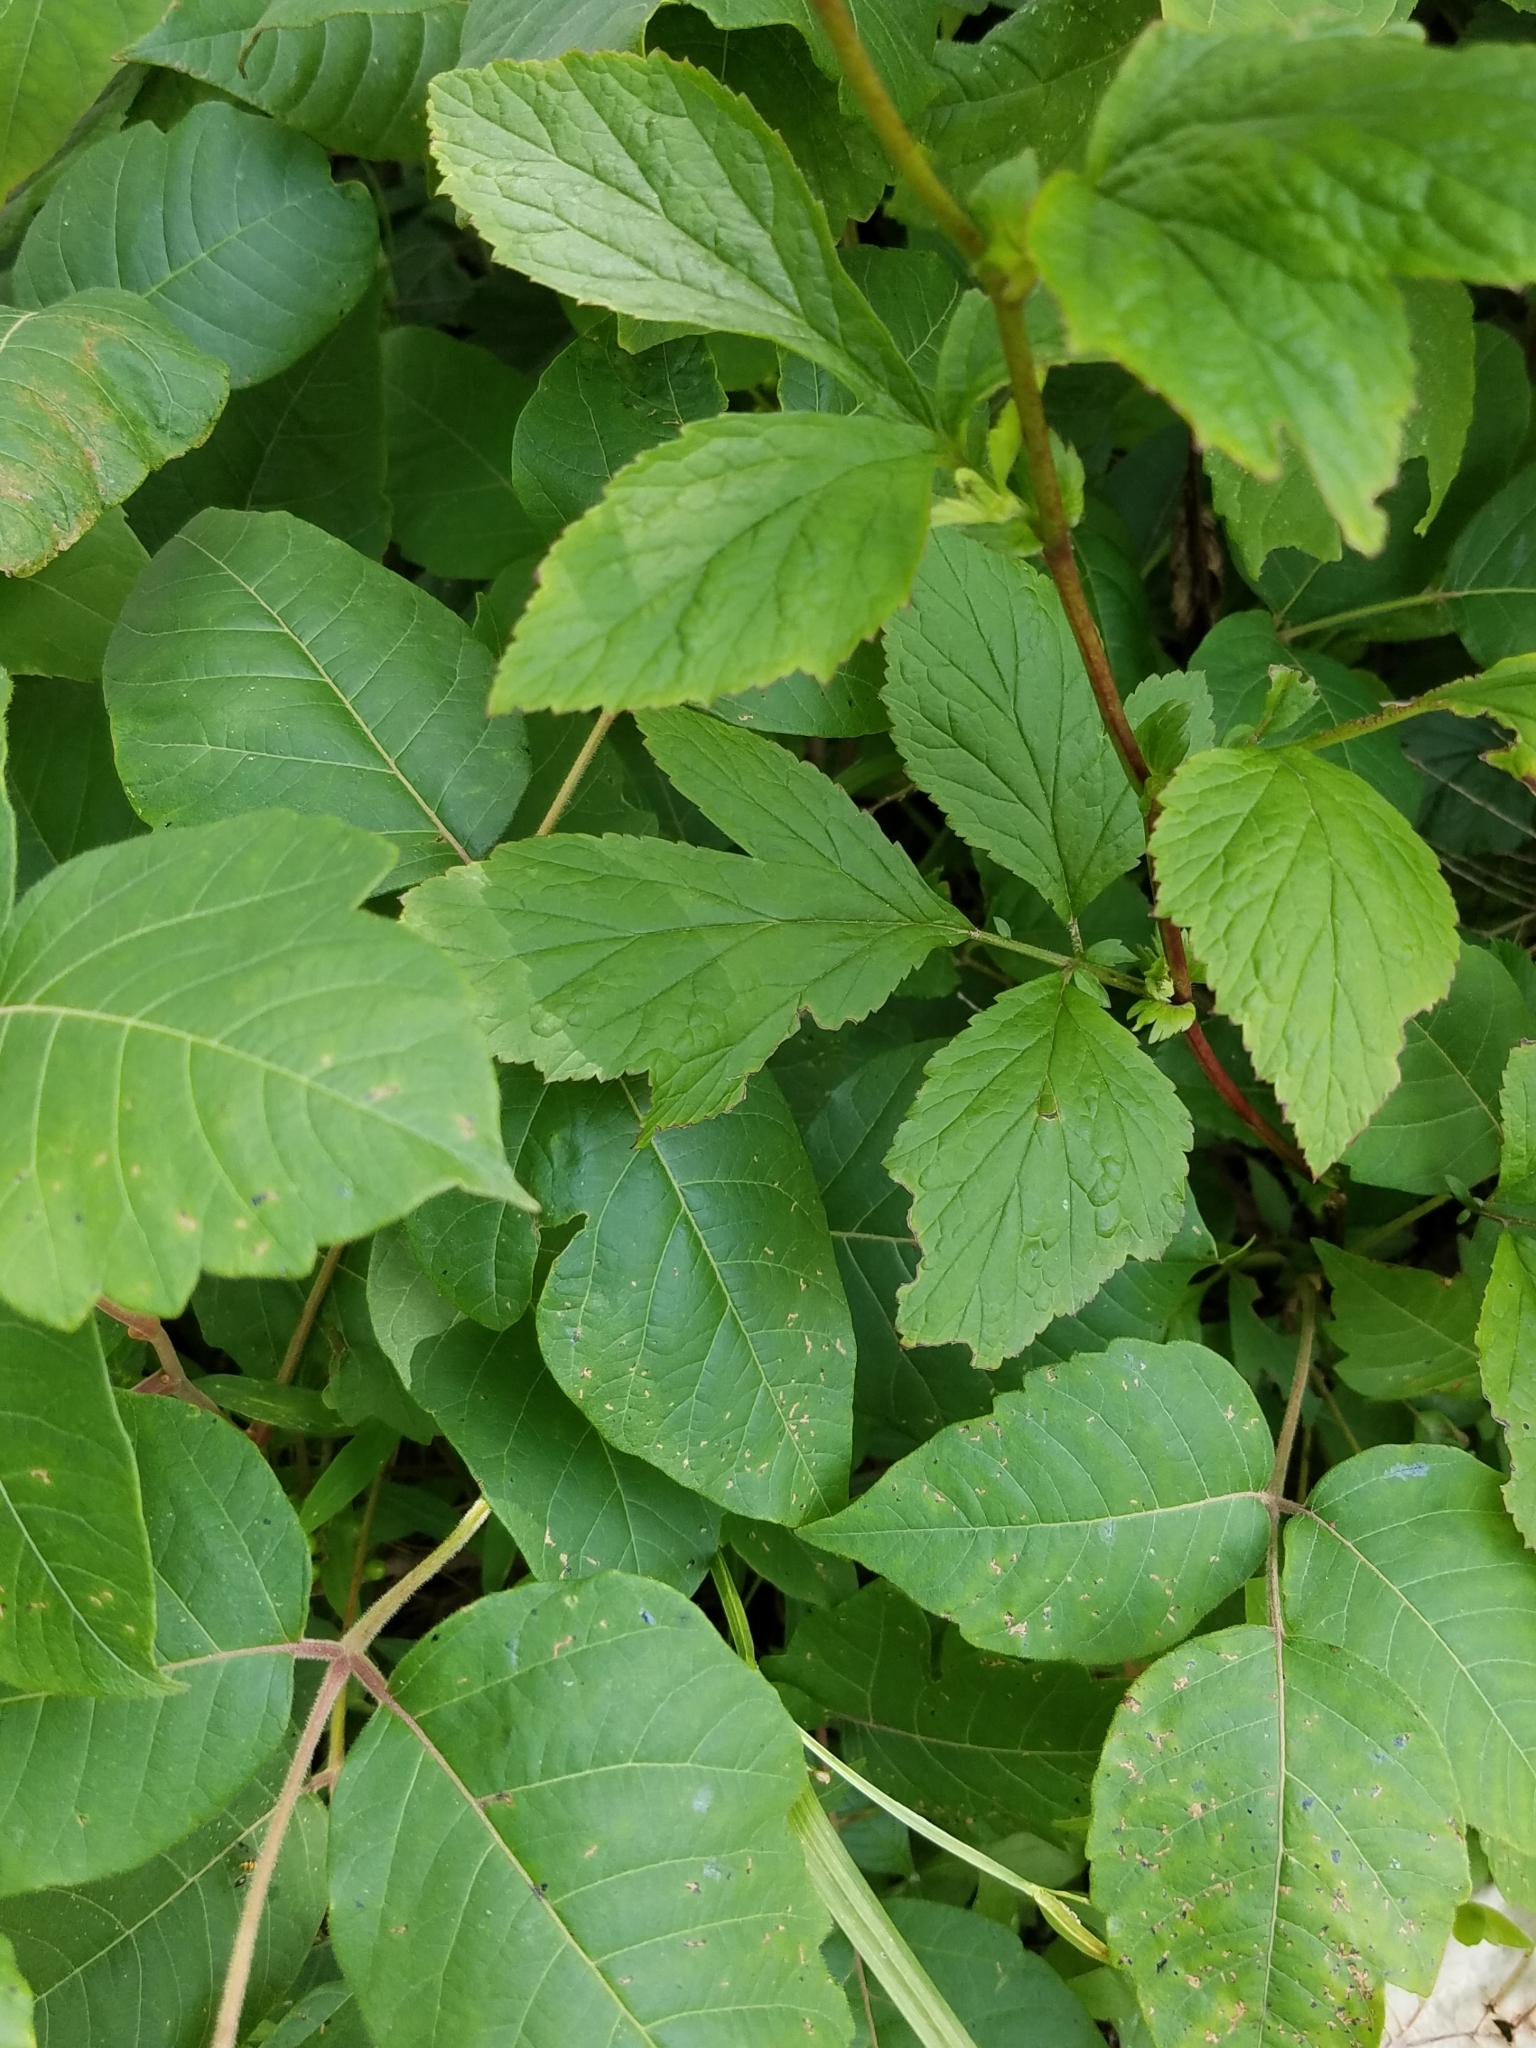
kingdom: Plantae
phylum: Tracheophyta
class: Magnoliopsida
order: Rosales
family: Rosaceae
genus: Geum
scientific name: Geum canadense
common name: White avens
